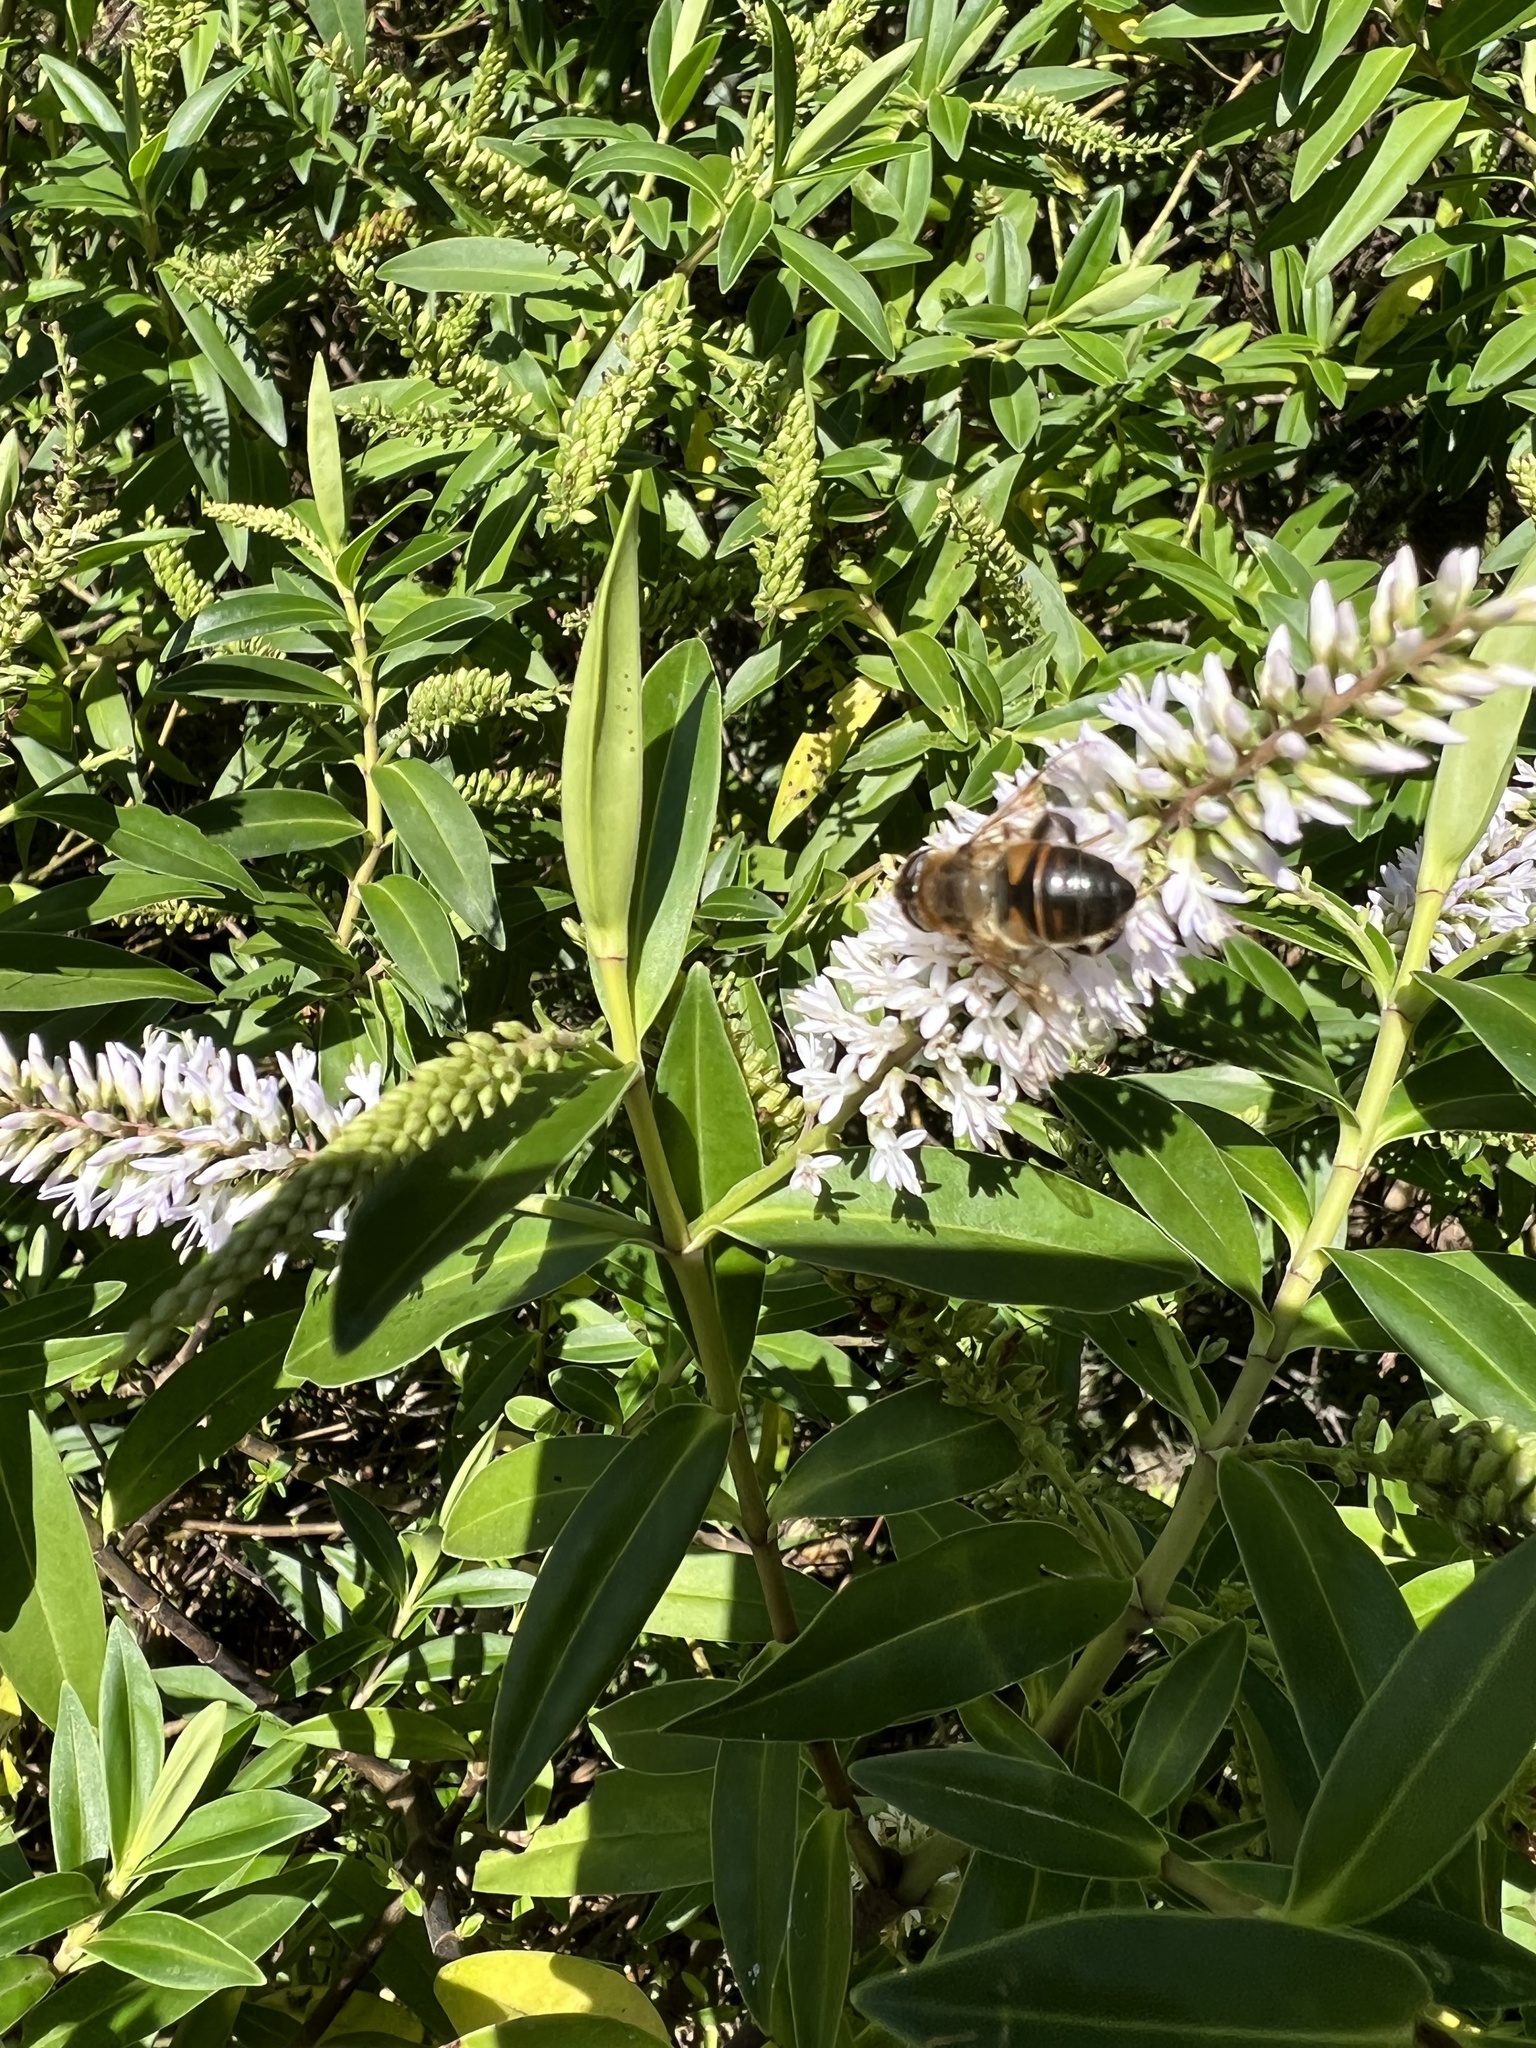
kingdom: Animalia
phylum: Arthropoda
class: Insecta
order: Diptera
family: Syrphidae
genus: Eristalis
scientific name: Eristalis tenax
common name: Drone fly
